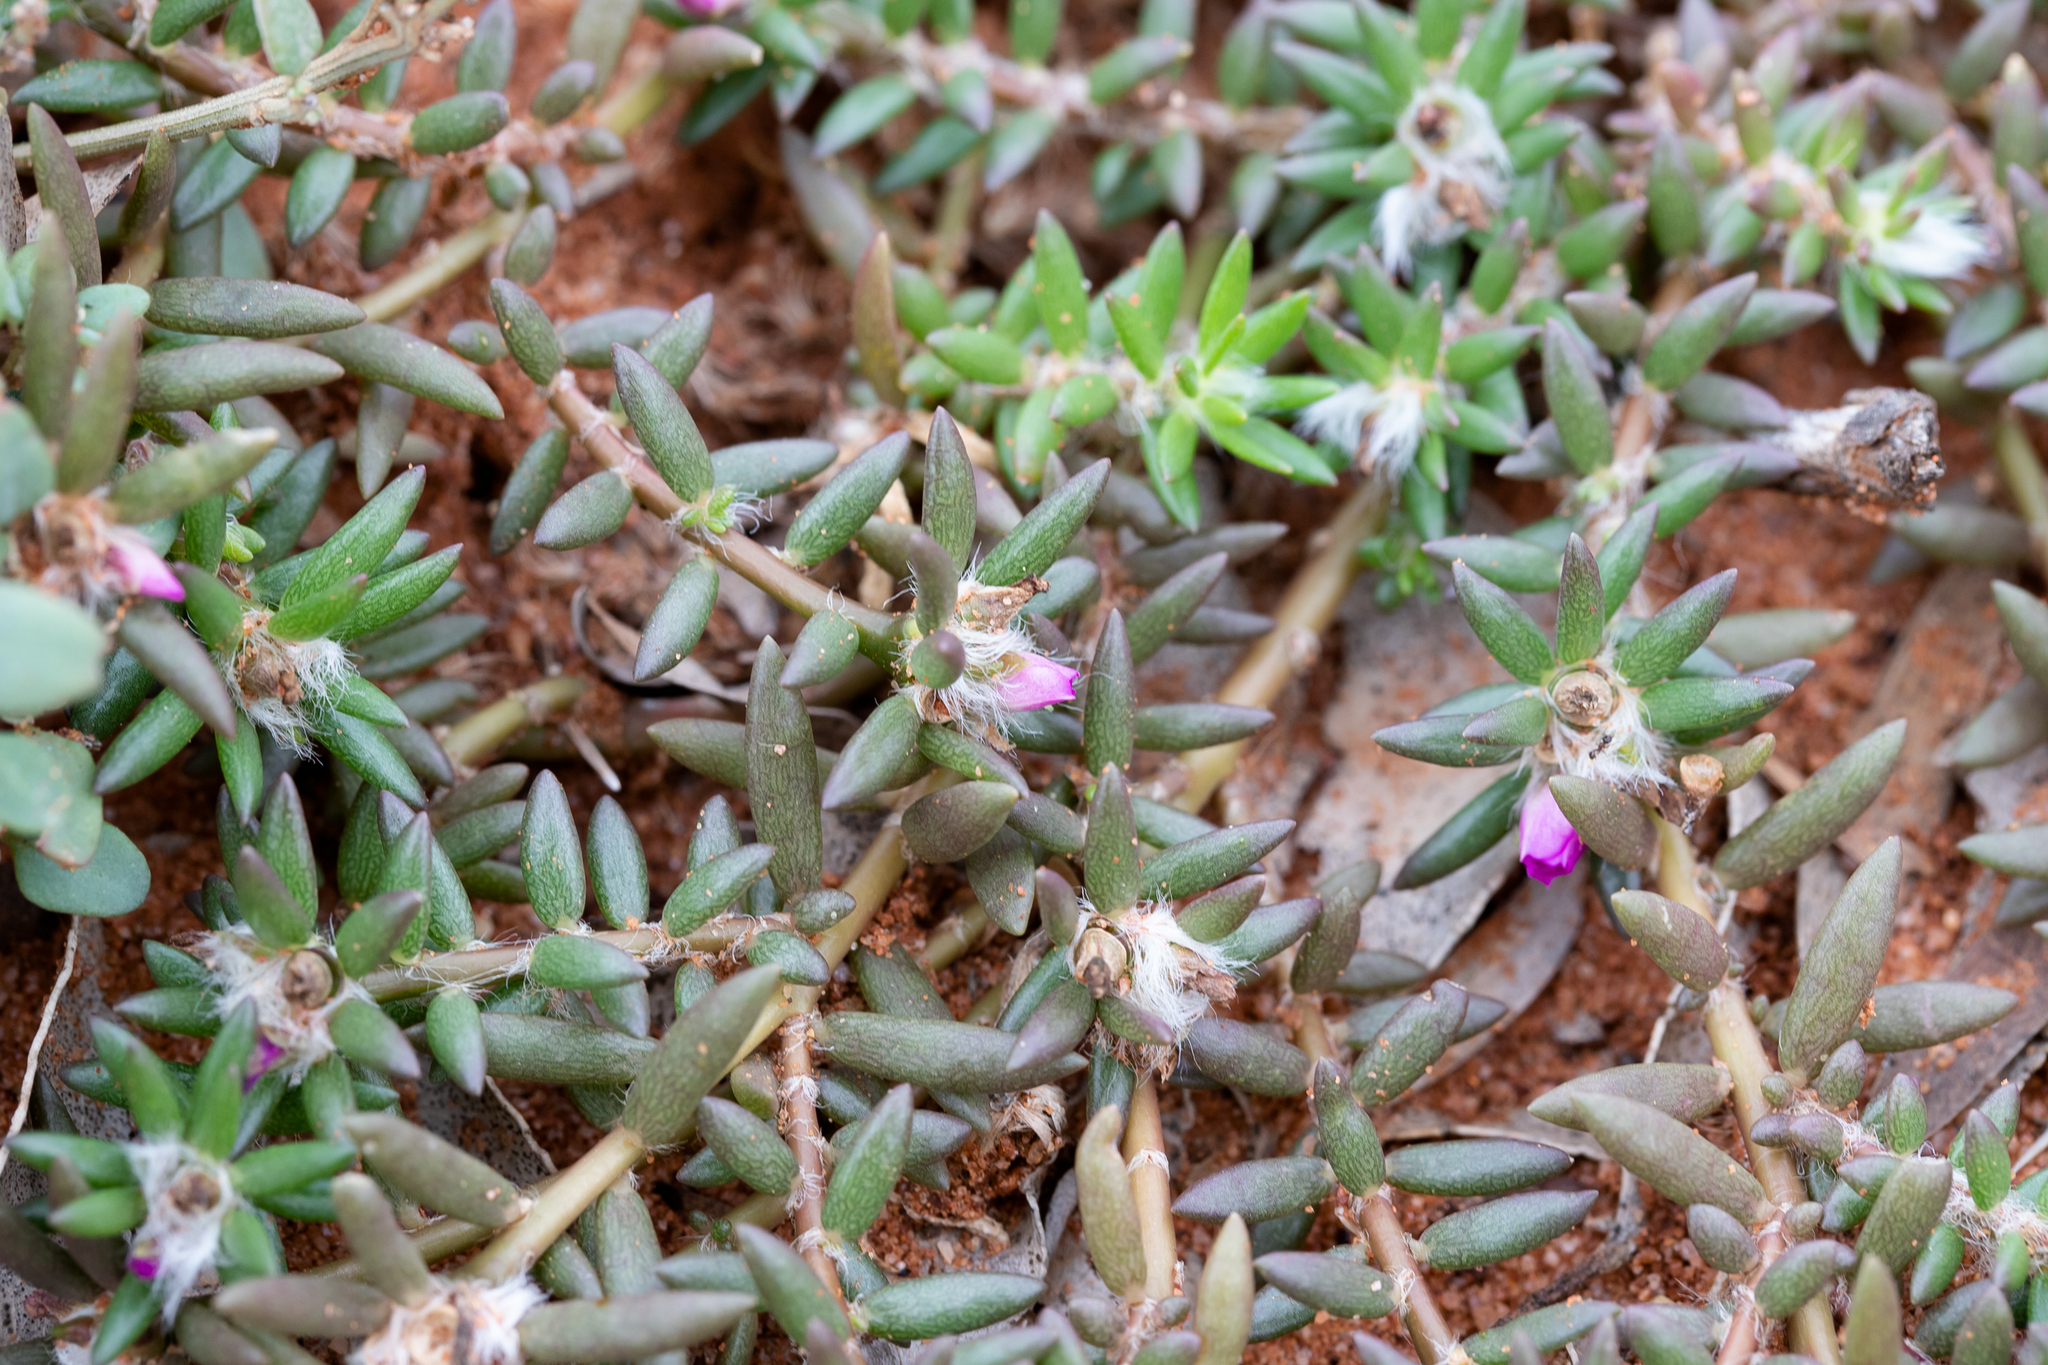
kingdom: Plantae
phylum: Tracheophyta
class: Magnoliopsida
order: Caryophyllales
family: Portulacaceae
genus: Portulaca
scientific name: Portulaca pilosa
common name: Kiss me quick
